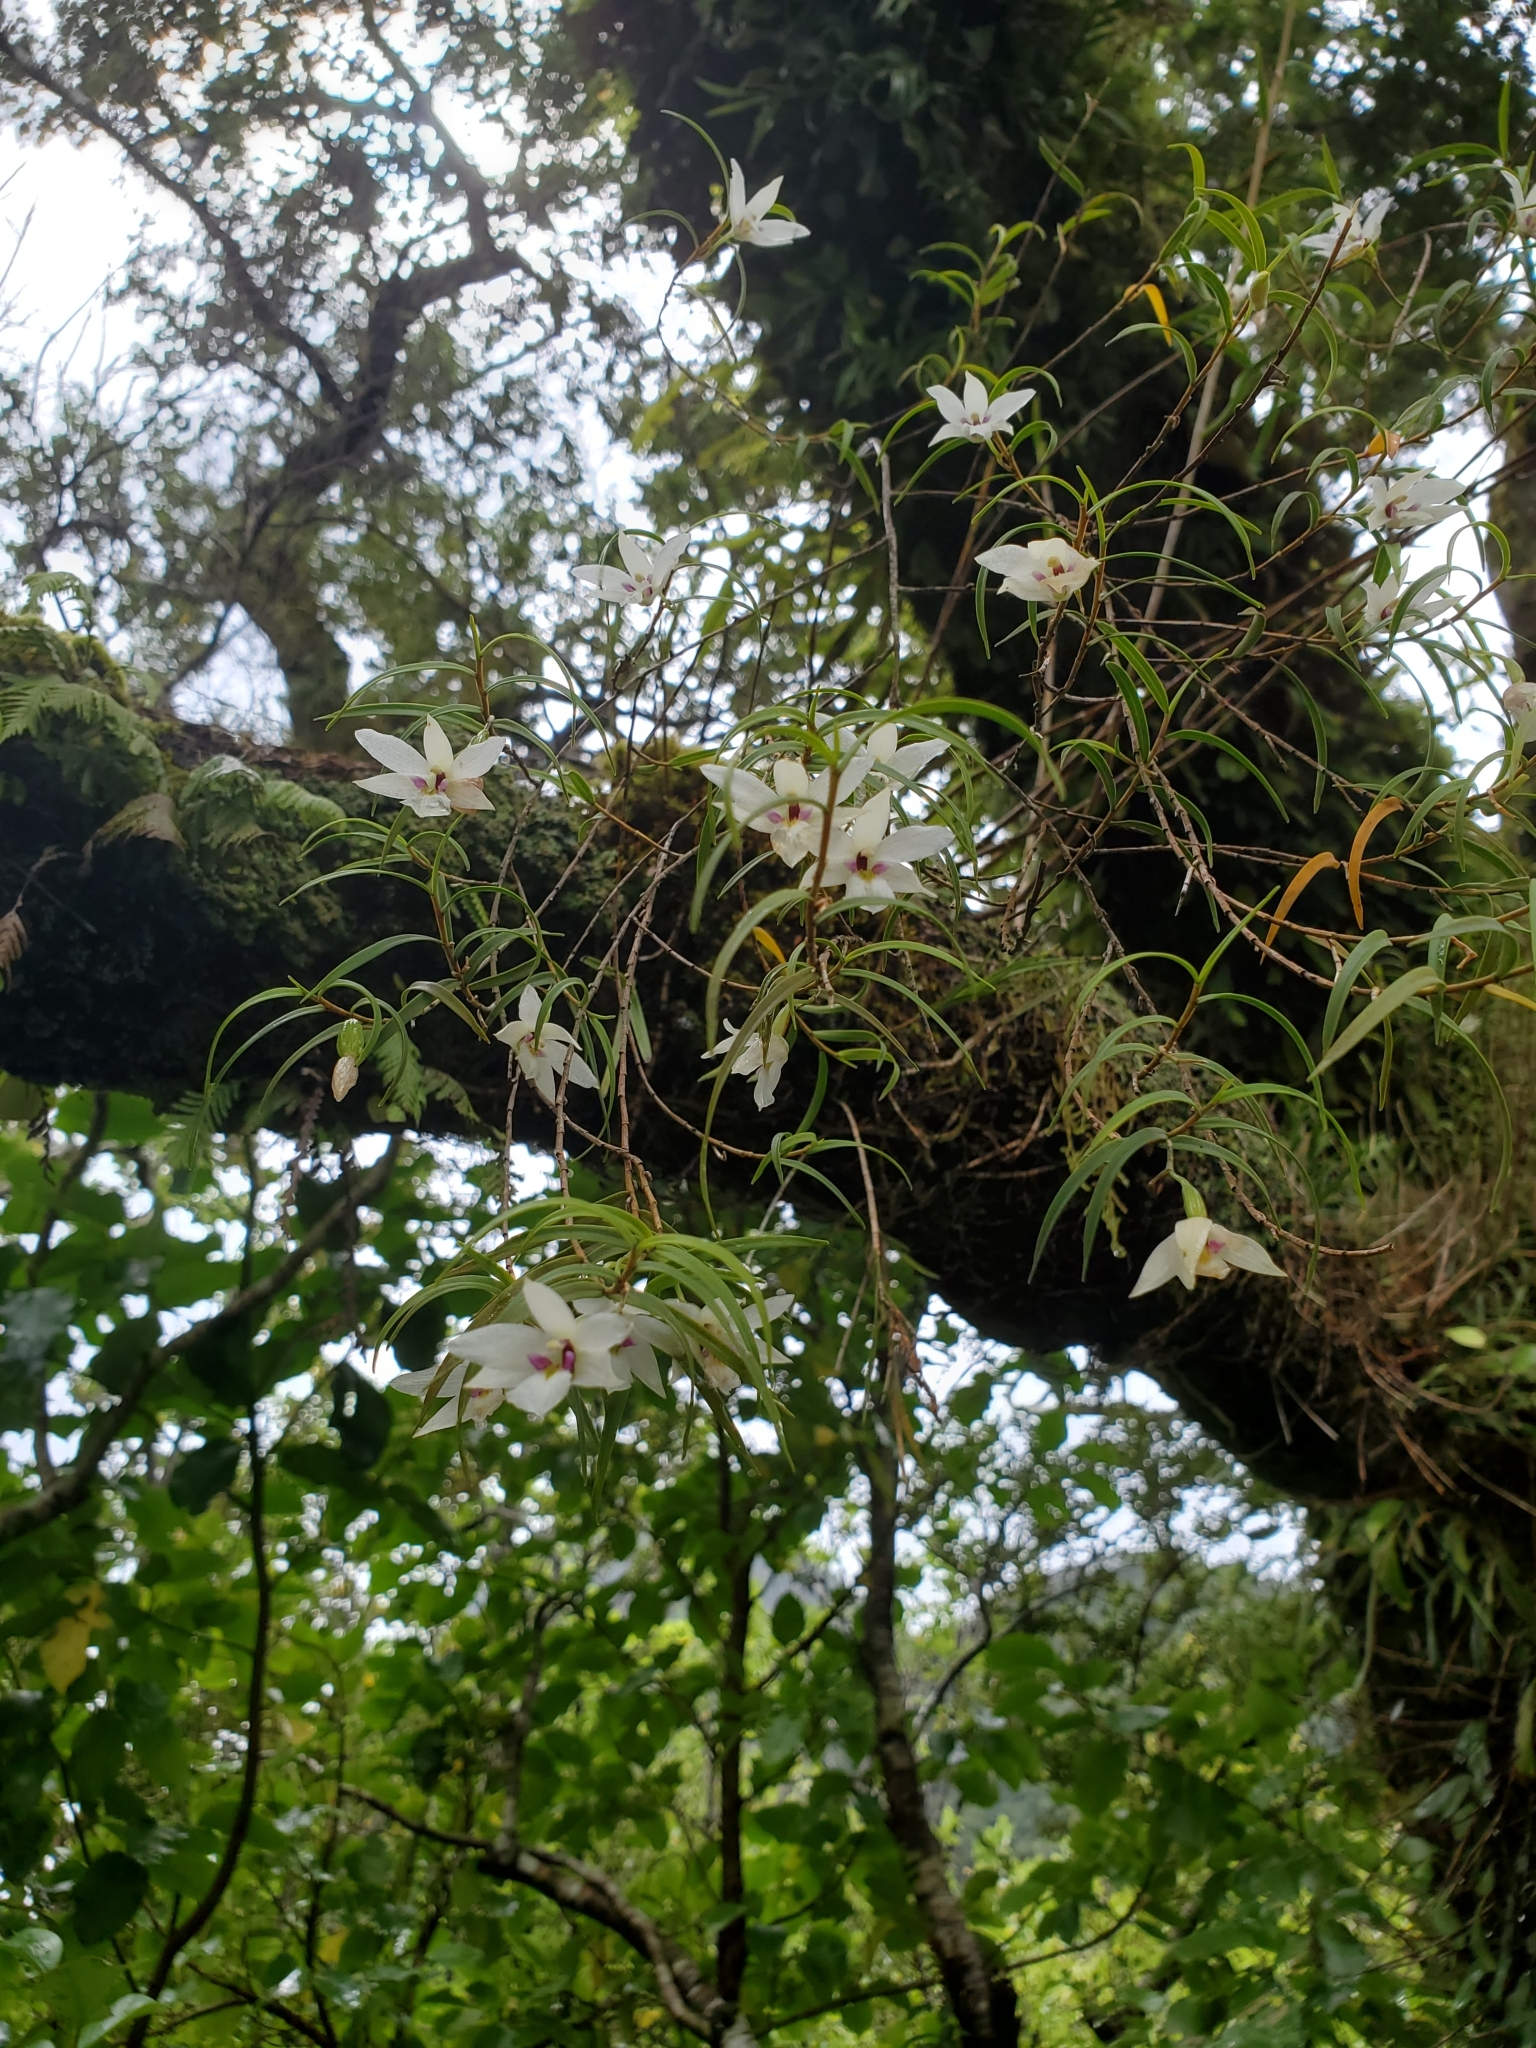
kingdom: Plantae
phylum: Tracheophyta
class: Liliopsida
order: Asparagales
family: Orchidaceae
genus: Dendrobium
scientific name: Dendrobium cunninghamii
